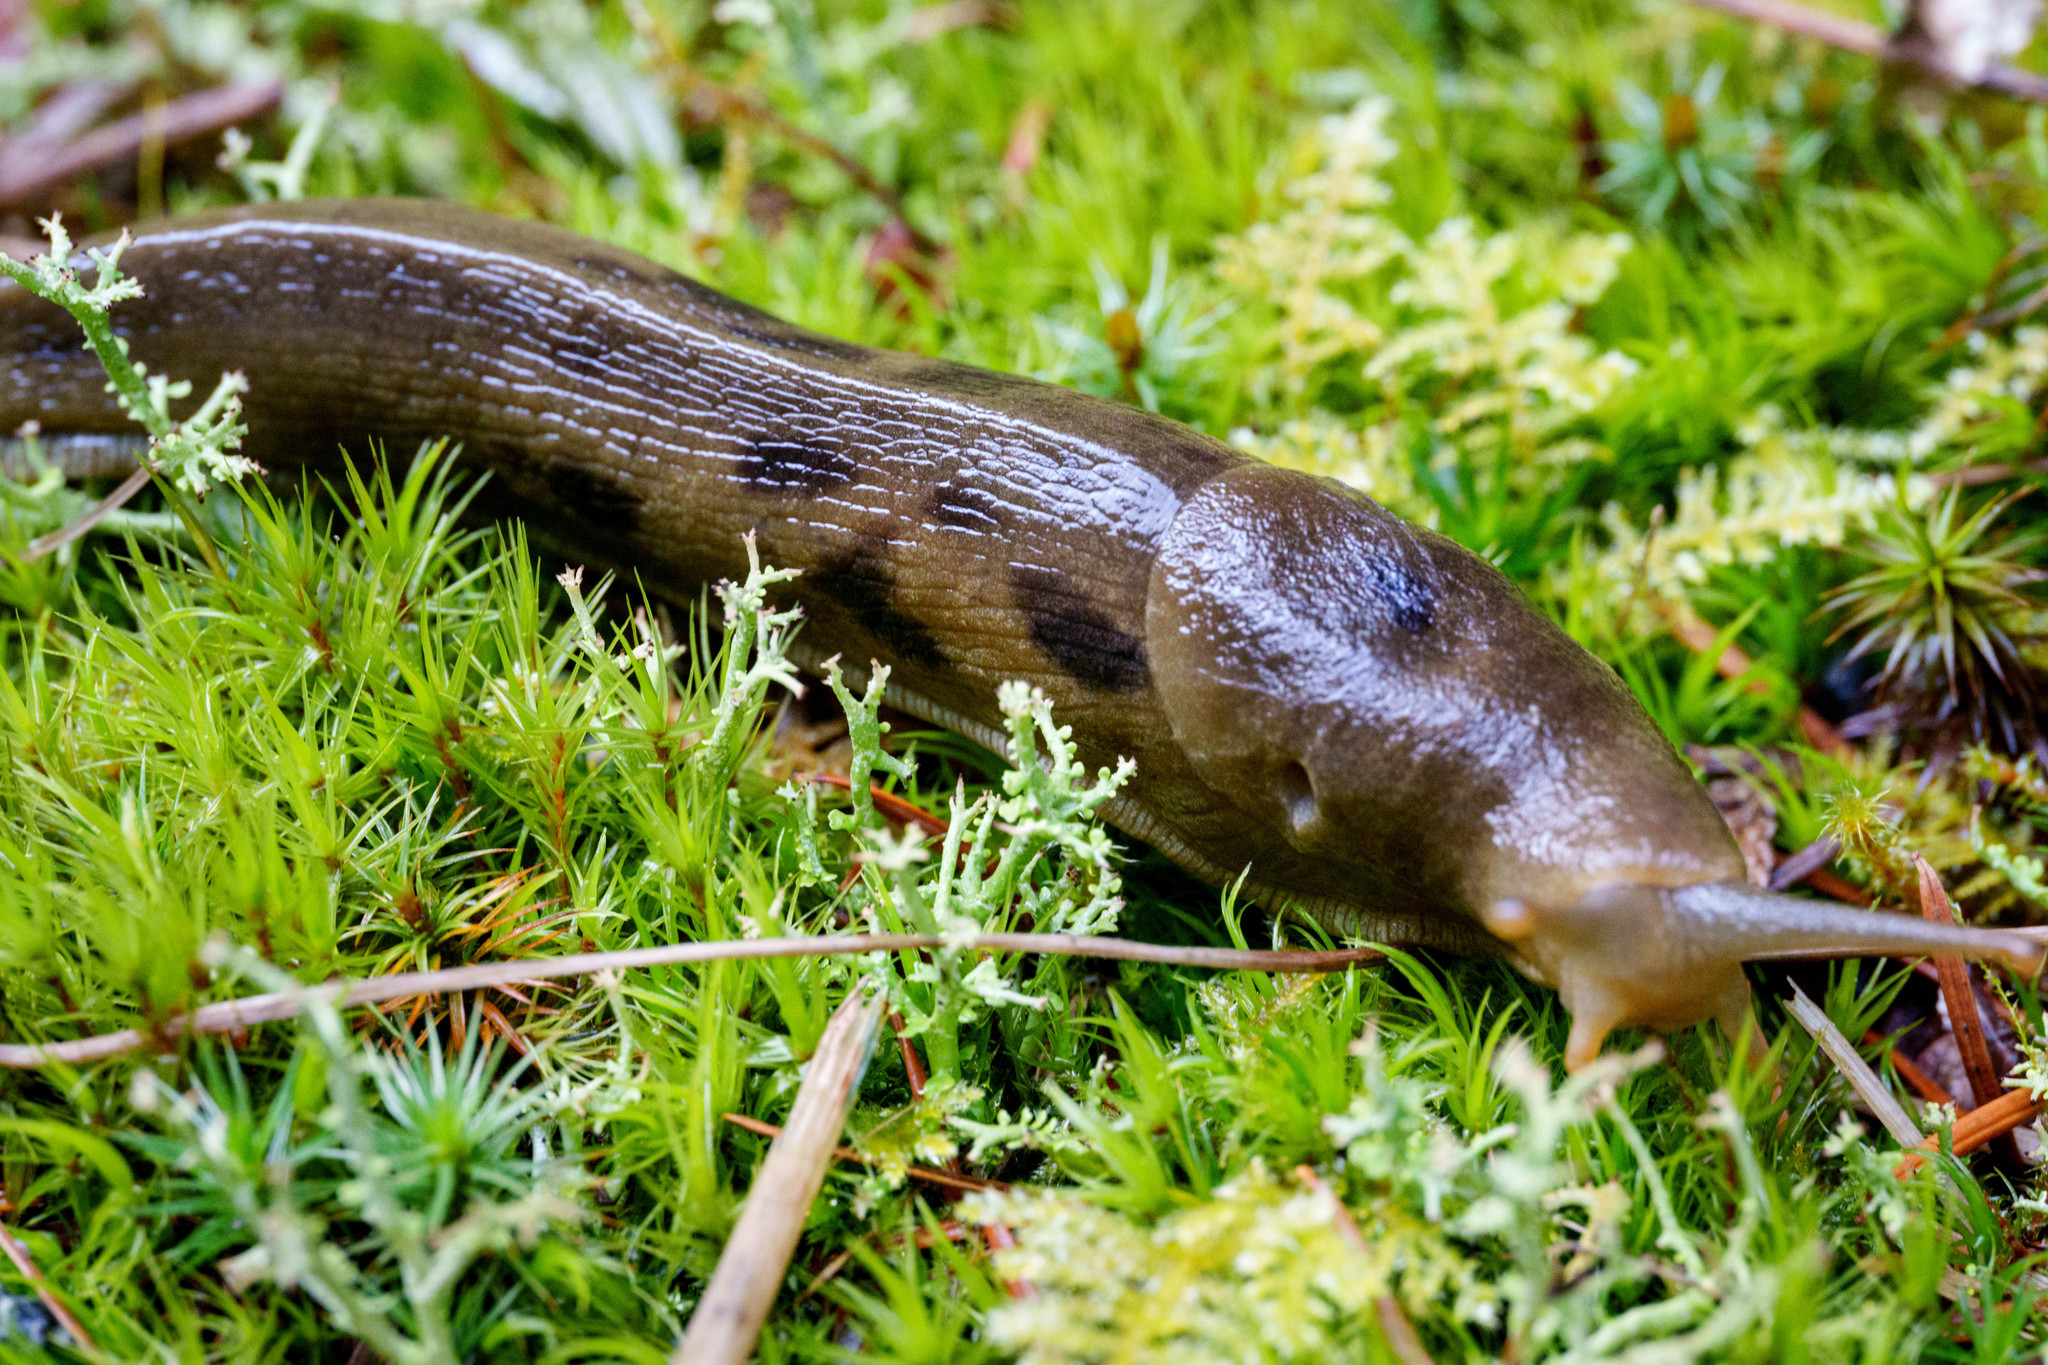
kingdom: Animalia
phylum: Mollusca
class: Gastropoda
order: Stylommatophora
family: Ariolimacidae
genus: Ariolimax
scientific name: Ariolimax columbianus
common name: Pacific banana slug
